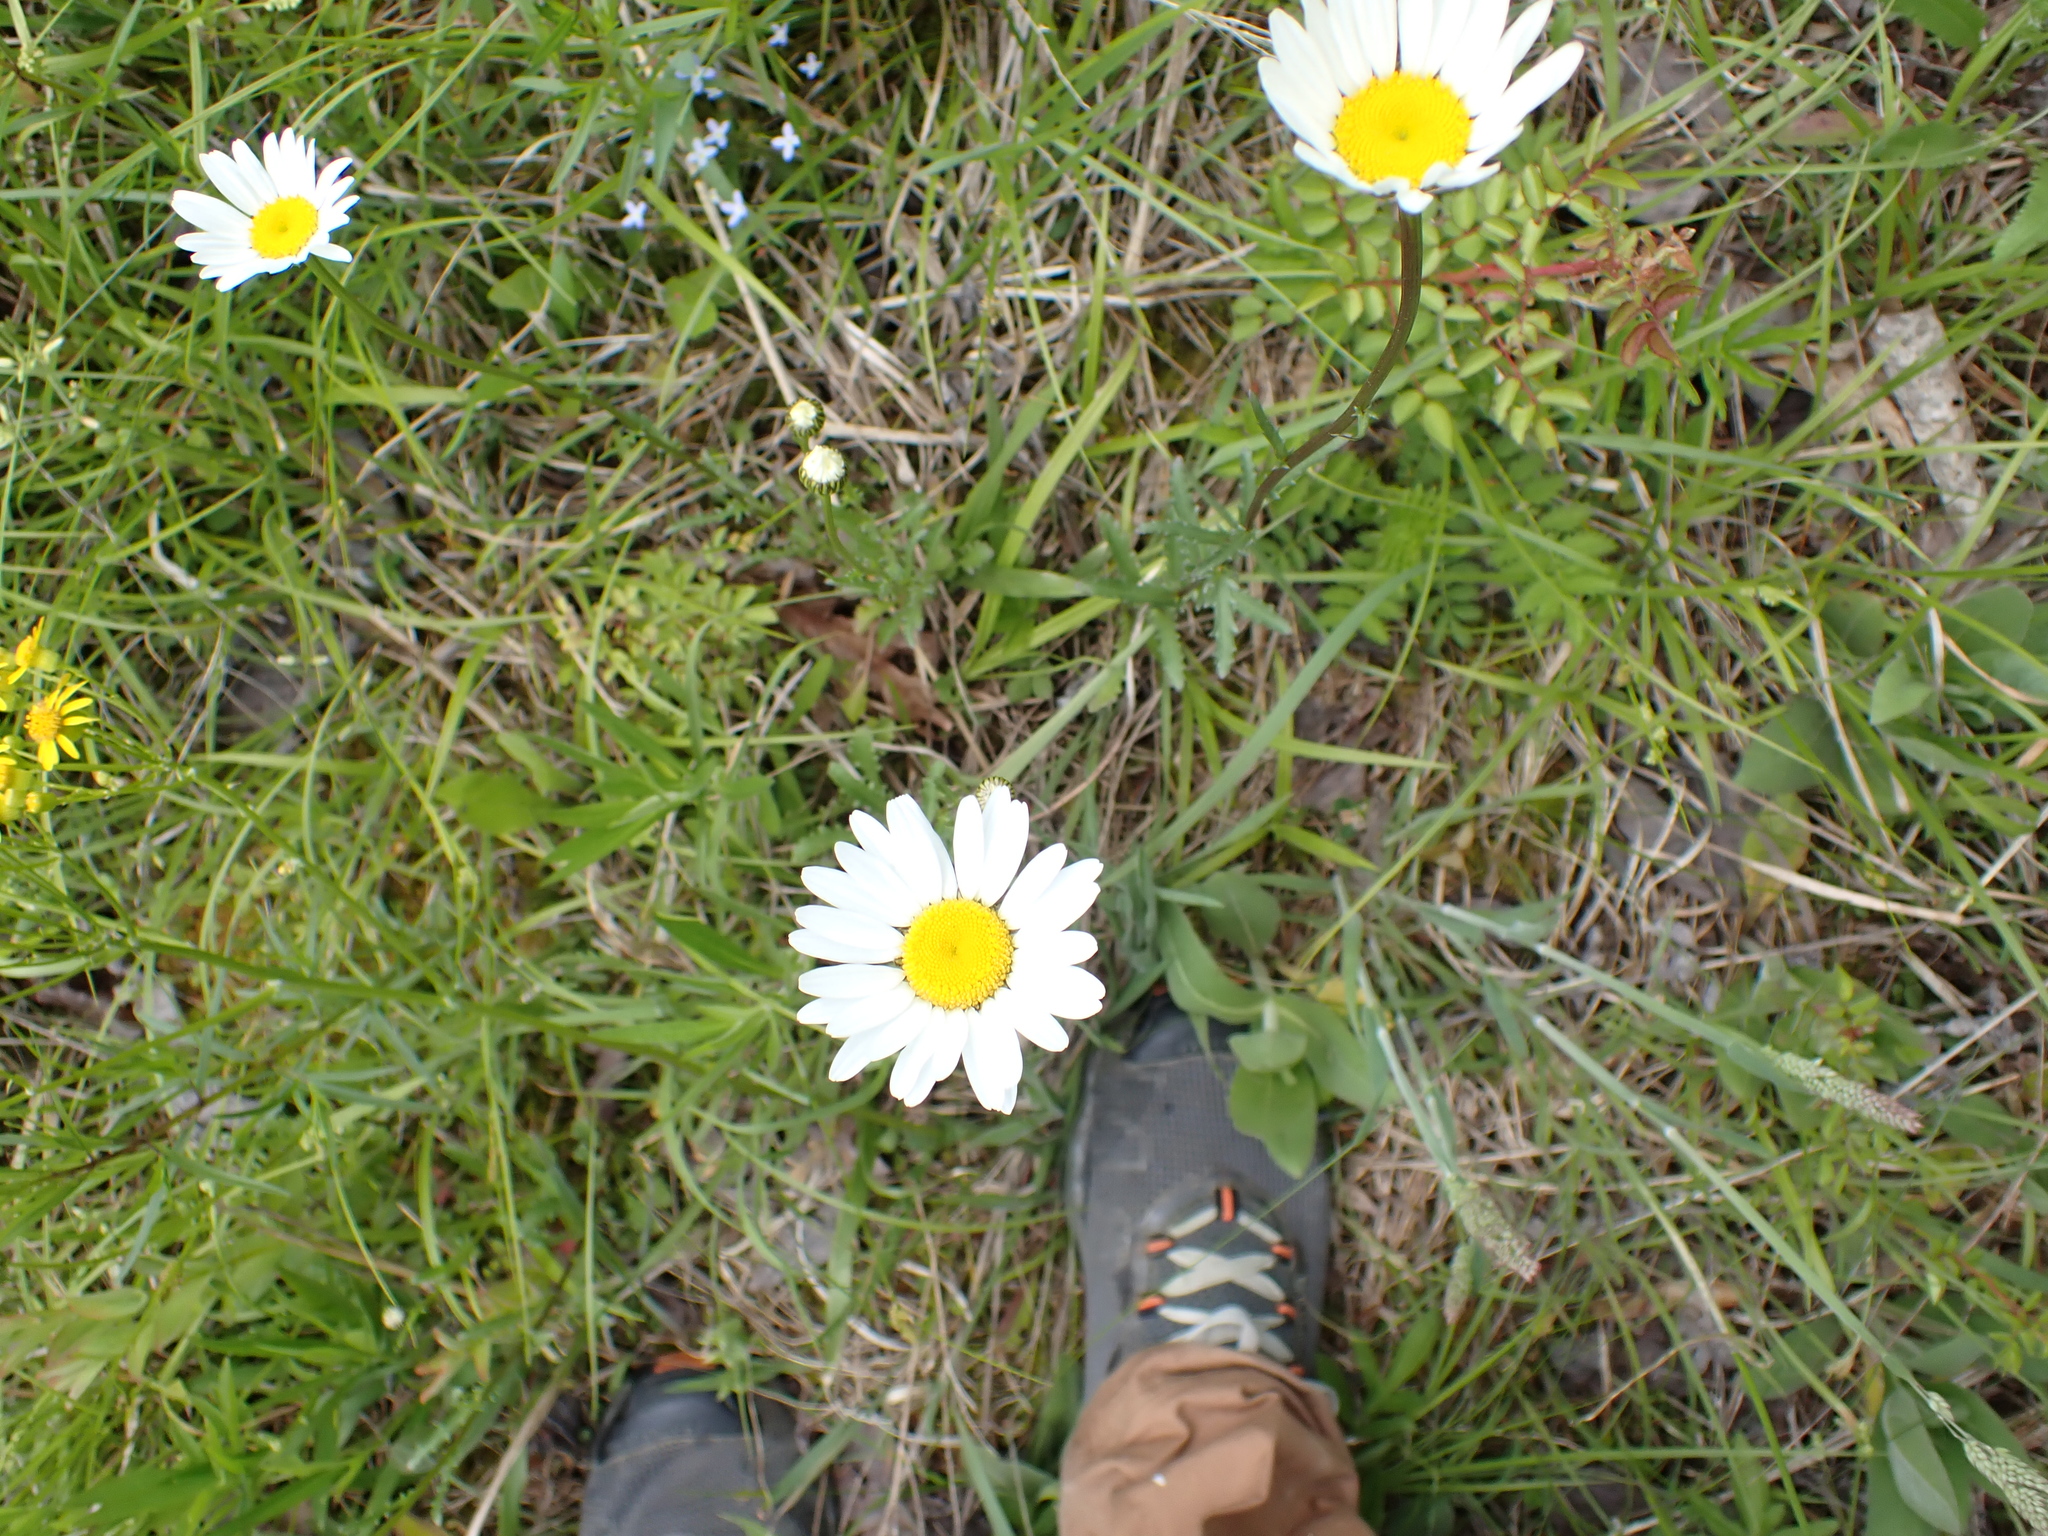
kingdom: Plantae
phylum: Tracheophyta
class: Magnoliopsida
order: Asterales
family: Asteraceae
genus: Leucanthemum
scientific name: Leucanthemum vulgare
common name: Oxeye daisy
